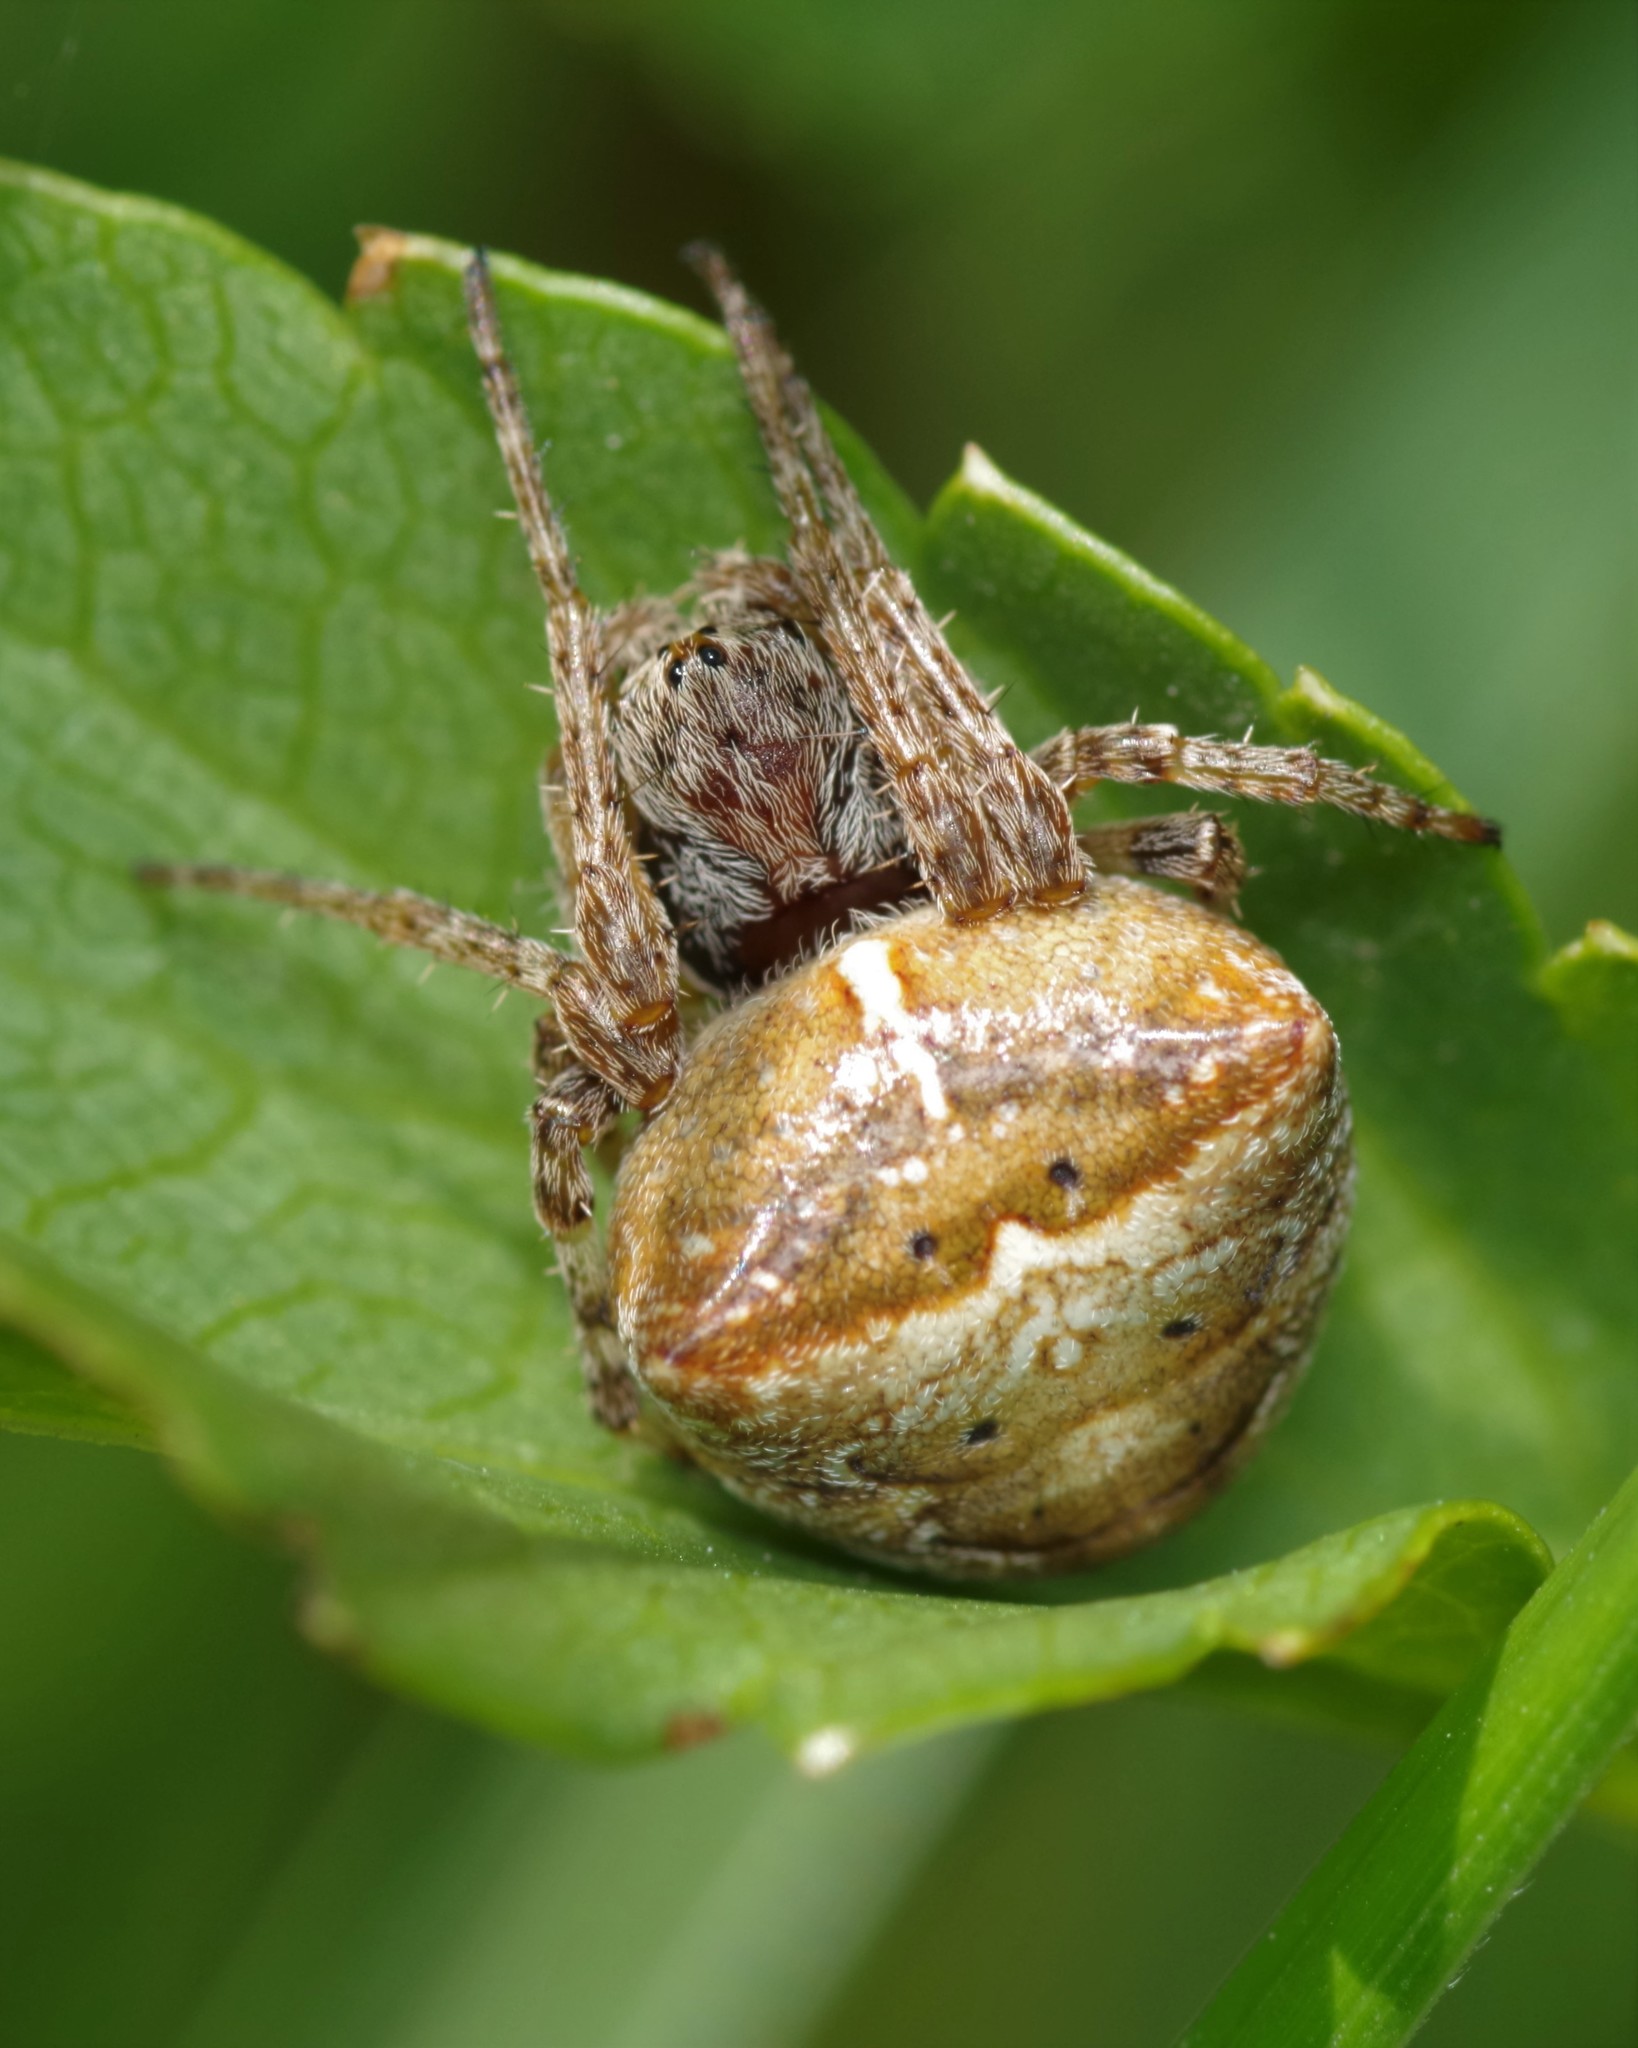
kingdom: Animalia
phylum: Arthropoda
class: Arachnida
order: Araneae
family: Araneidae
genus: Gibbaranea
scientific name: Gibbaranea bituberculata
